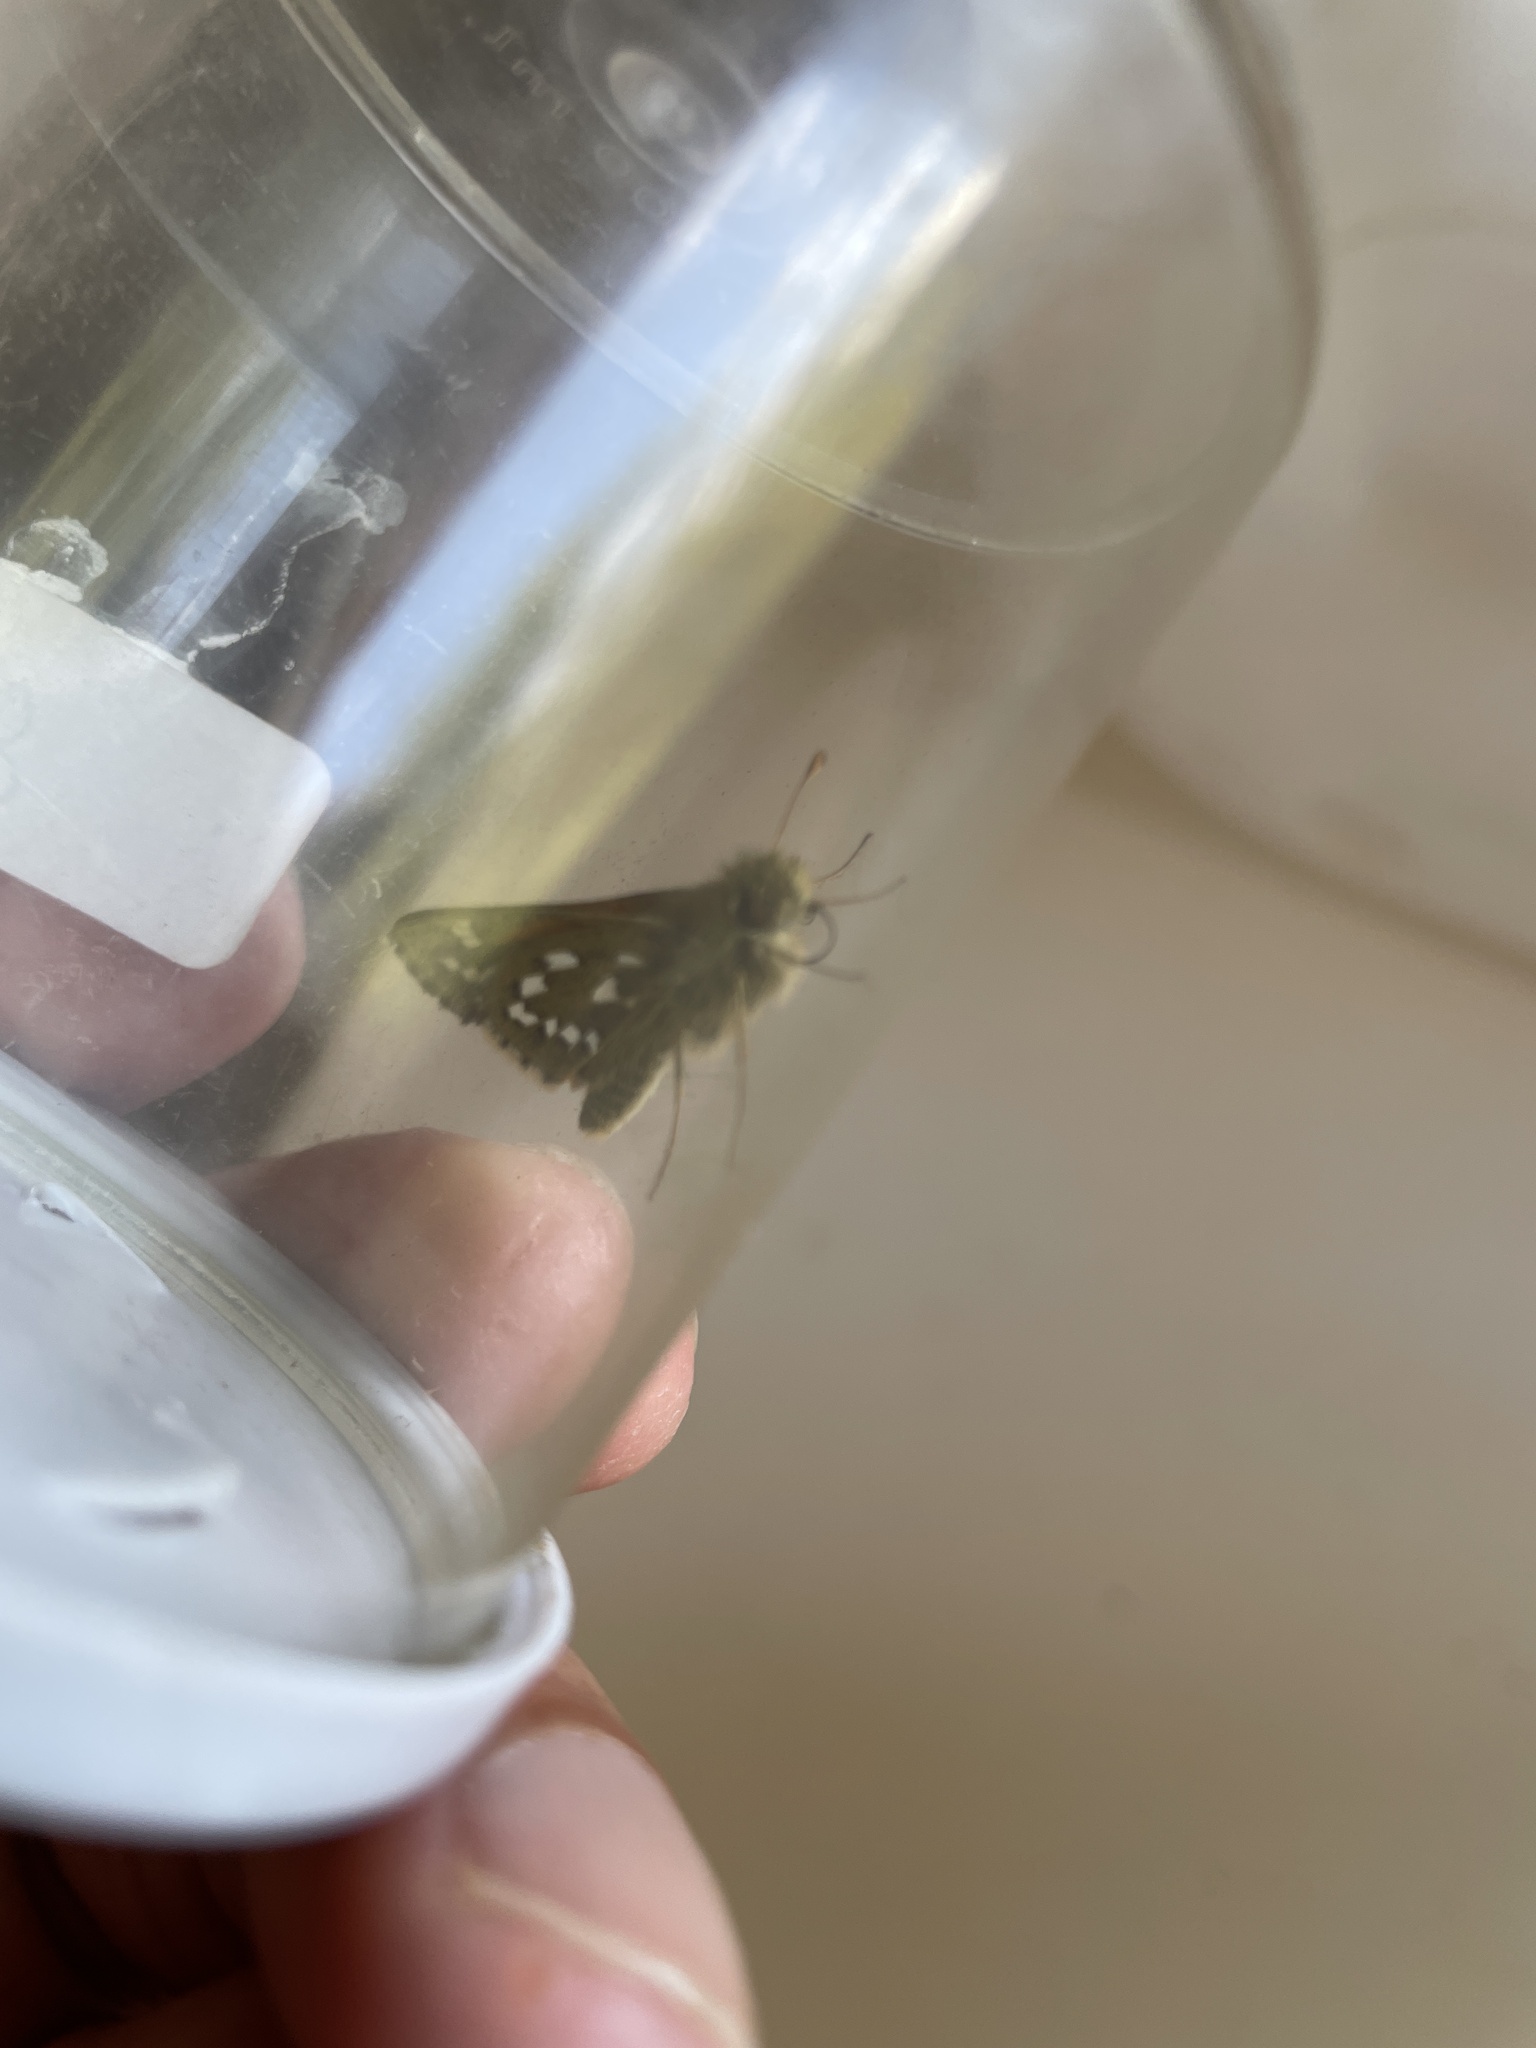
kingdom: Animalia
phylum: Arthropoda
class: Insecta
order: Lepidoptera
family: Hesperiidae
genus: Hesperia
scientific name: Hesperia comma
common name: Common branded skipper
